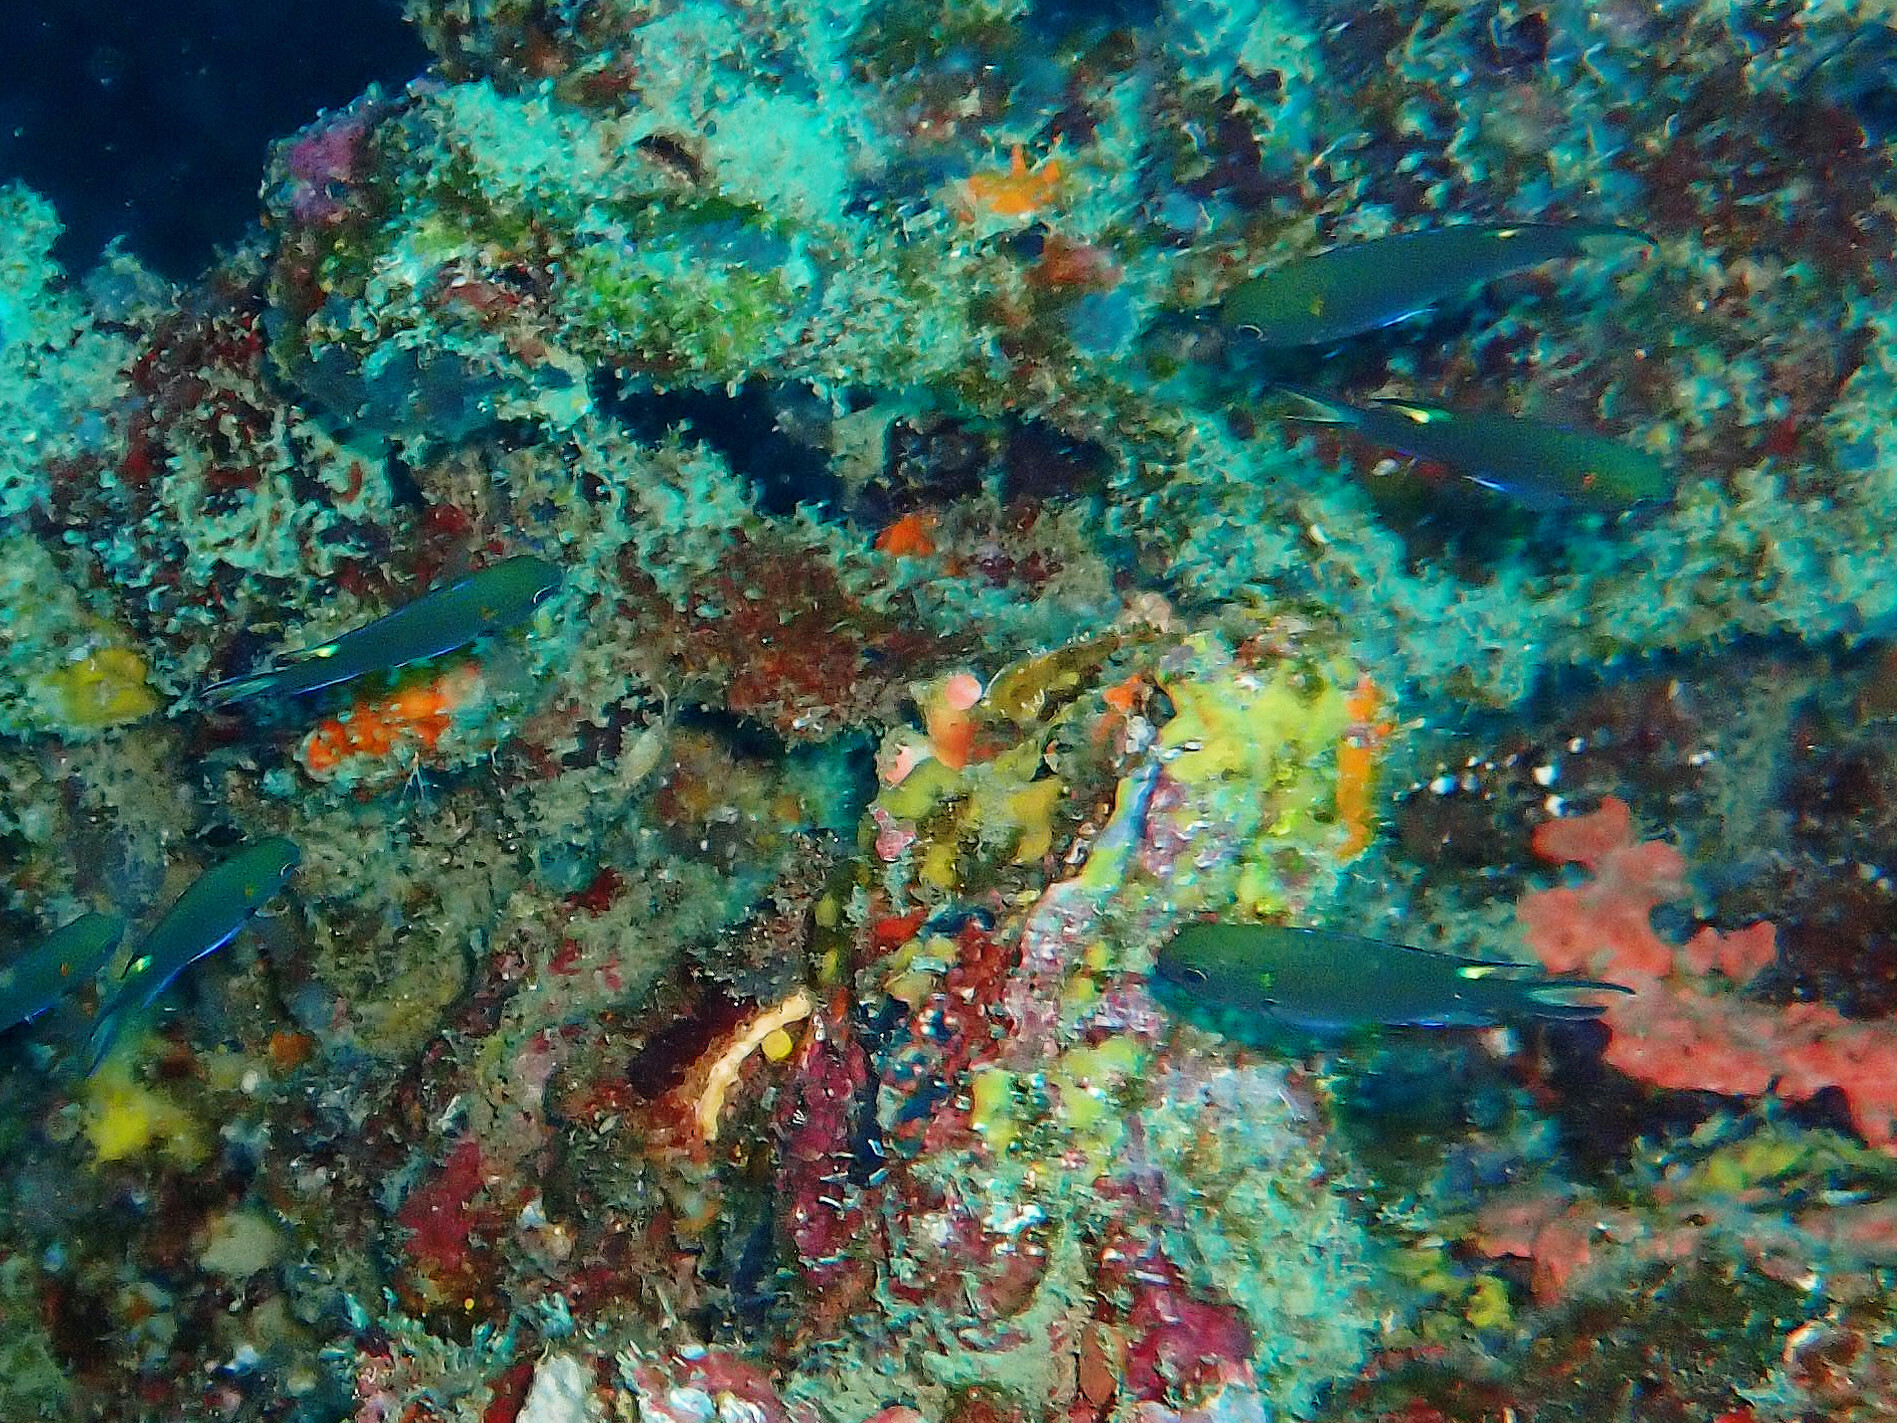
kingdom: Animalia
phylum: Chordata
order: Perciformes
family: Pomacentridae
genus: Neopomacentrus
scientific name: Neopomacentrus cyanomos
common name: Regal demoiselle
